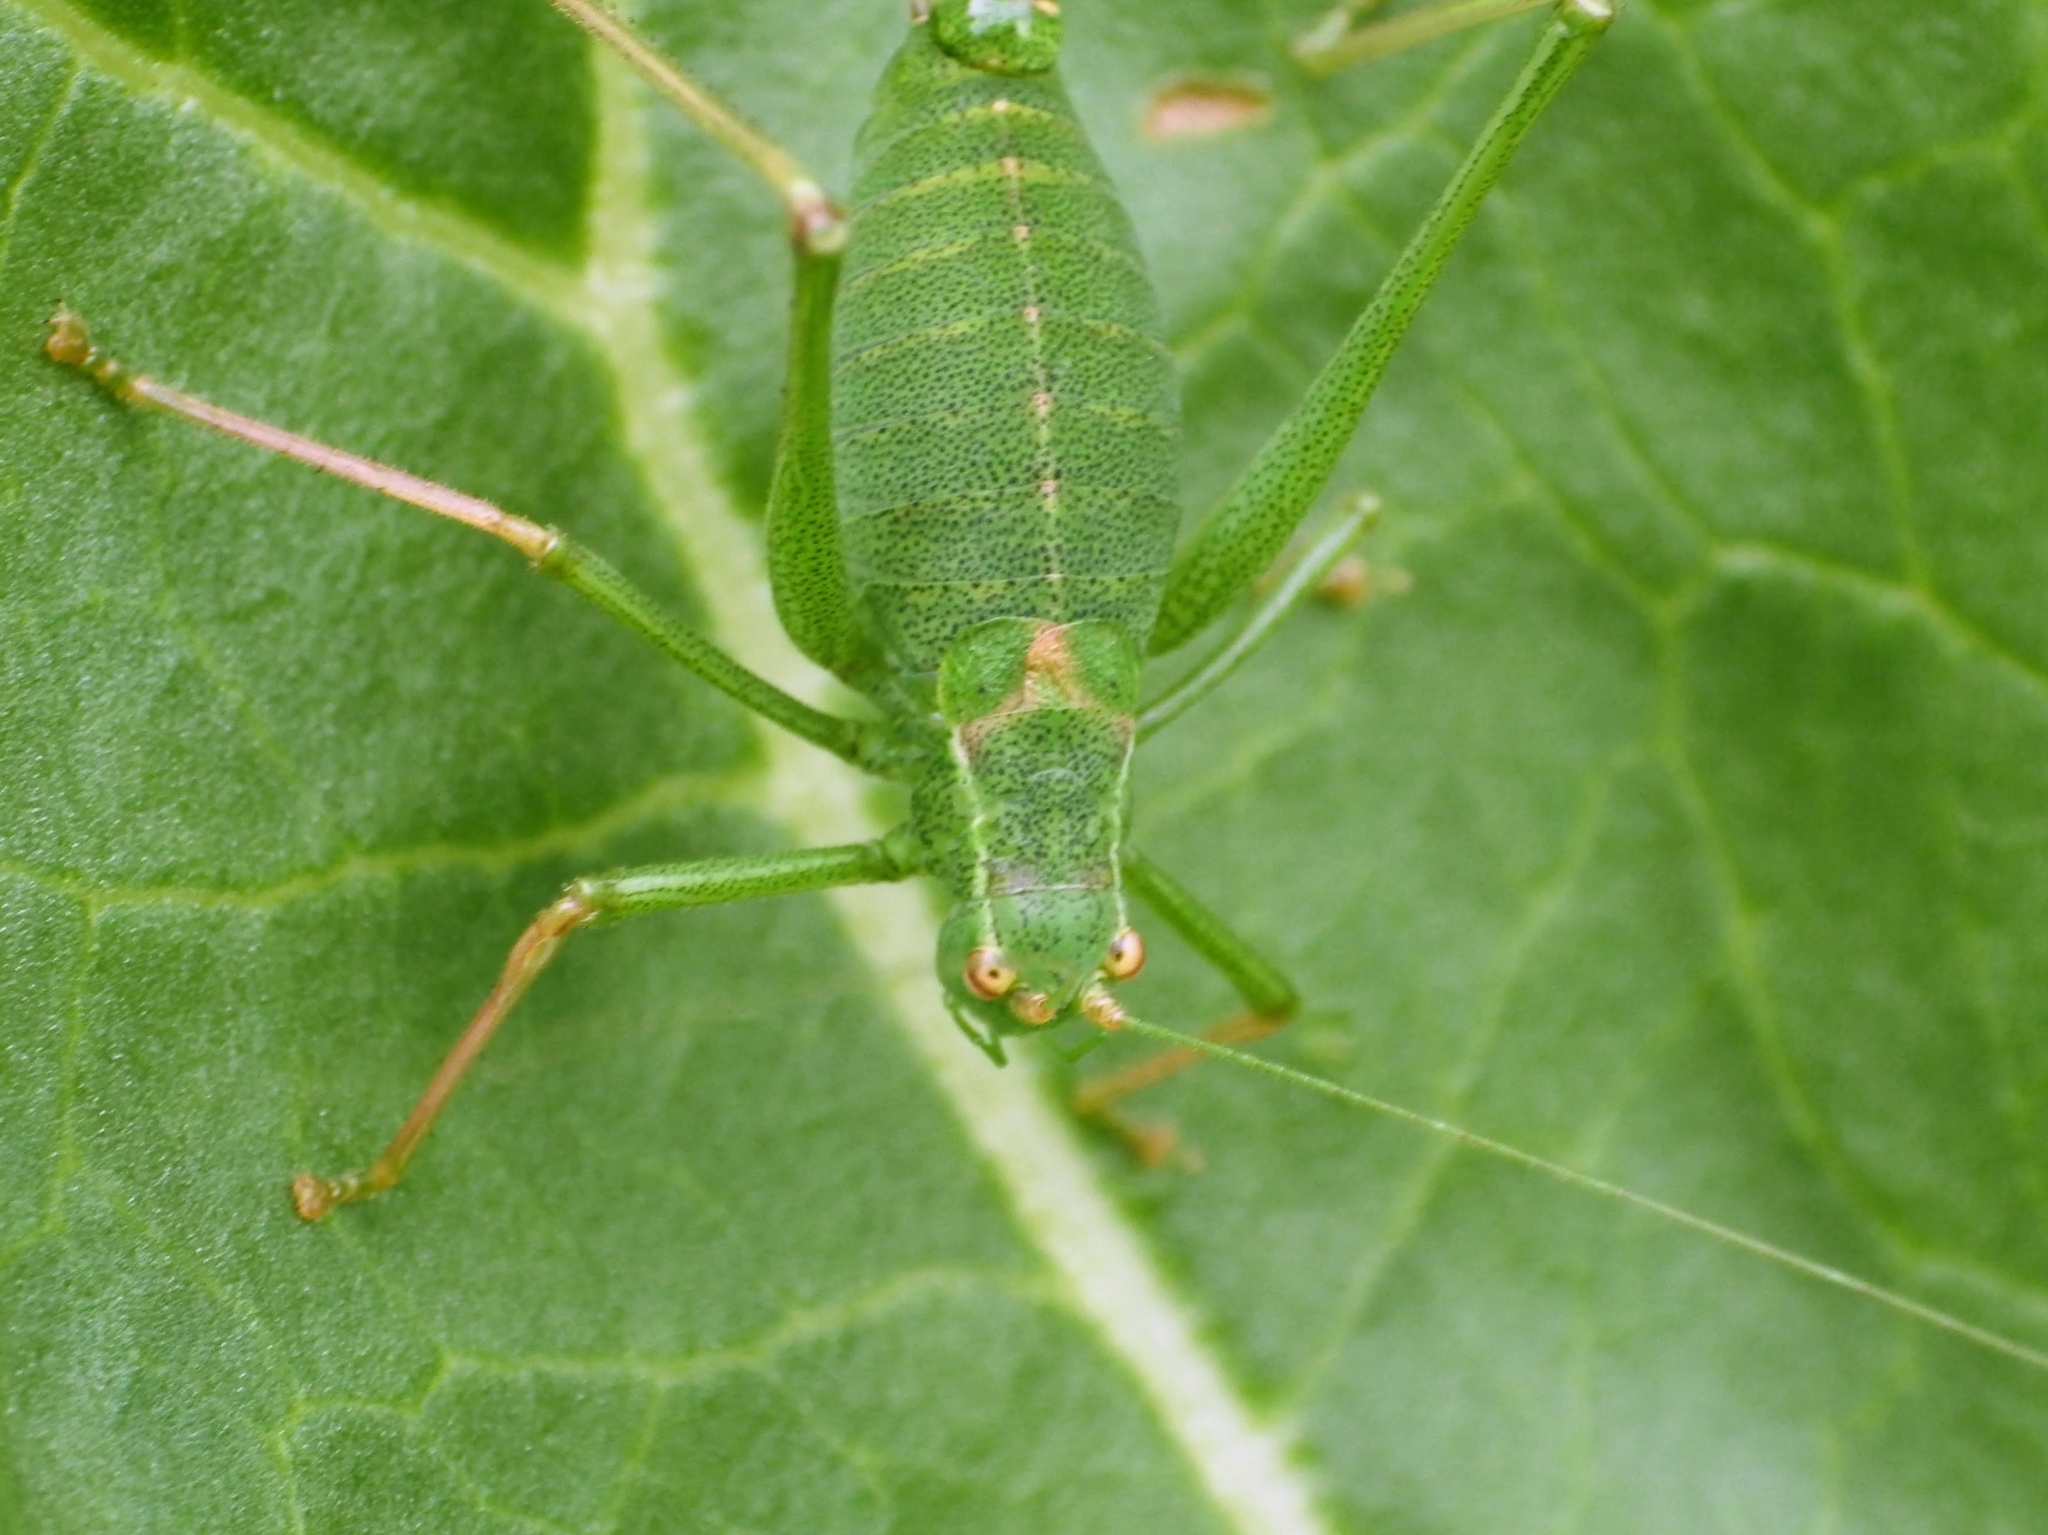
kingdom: Animalia
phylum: Arthropoda
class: Insecta
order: Orthoptera
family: Tettigoniidae
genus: Leptophyes
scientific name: Leptophyes punctatissima
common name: Speckled bush-cricket
